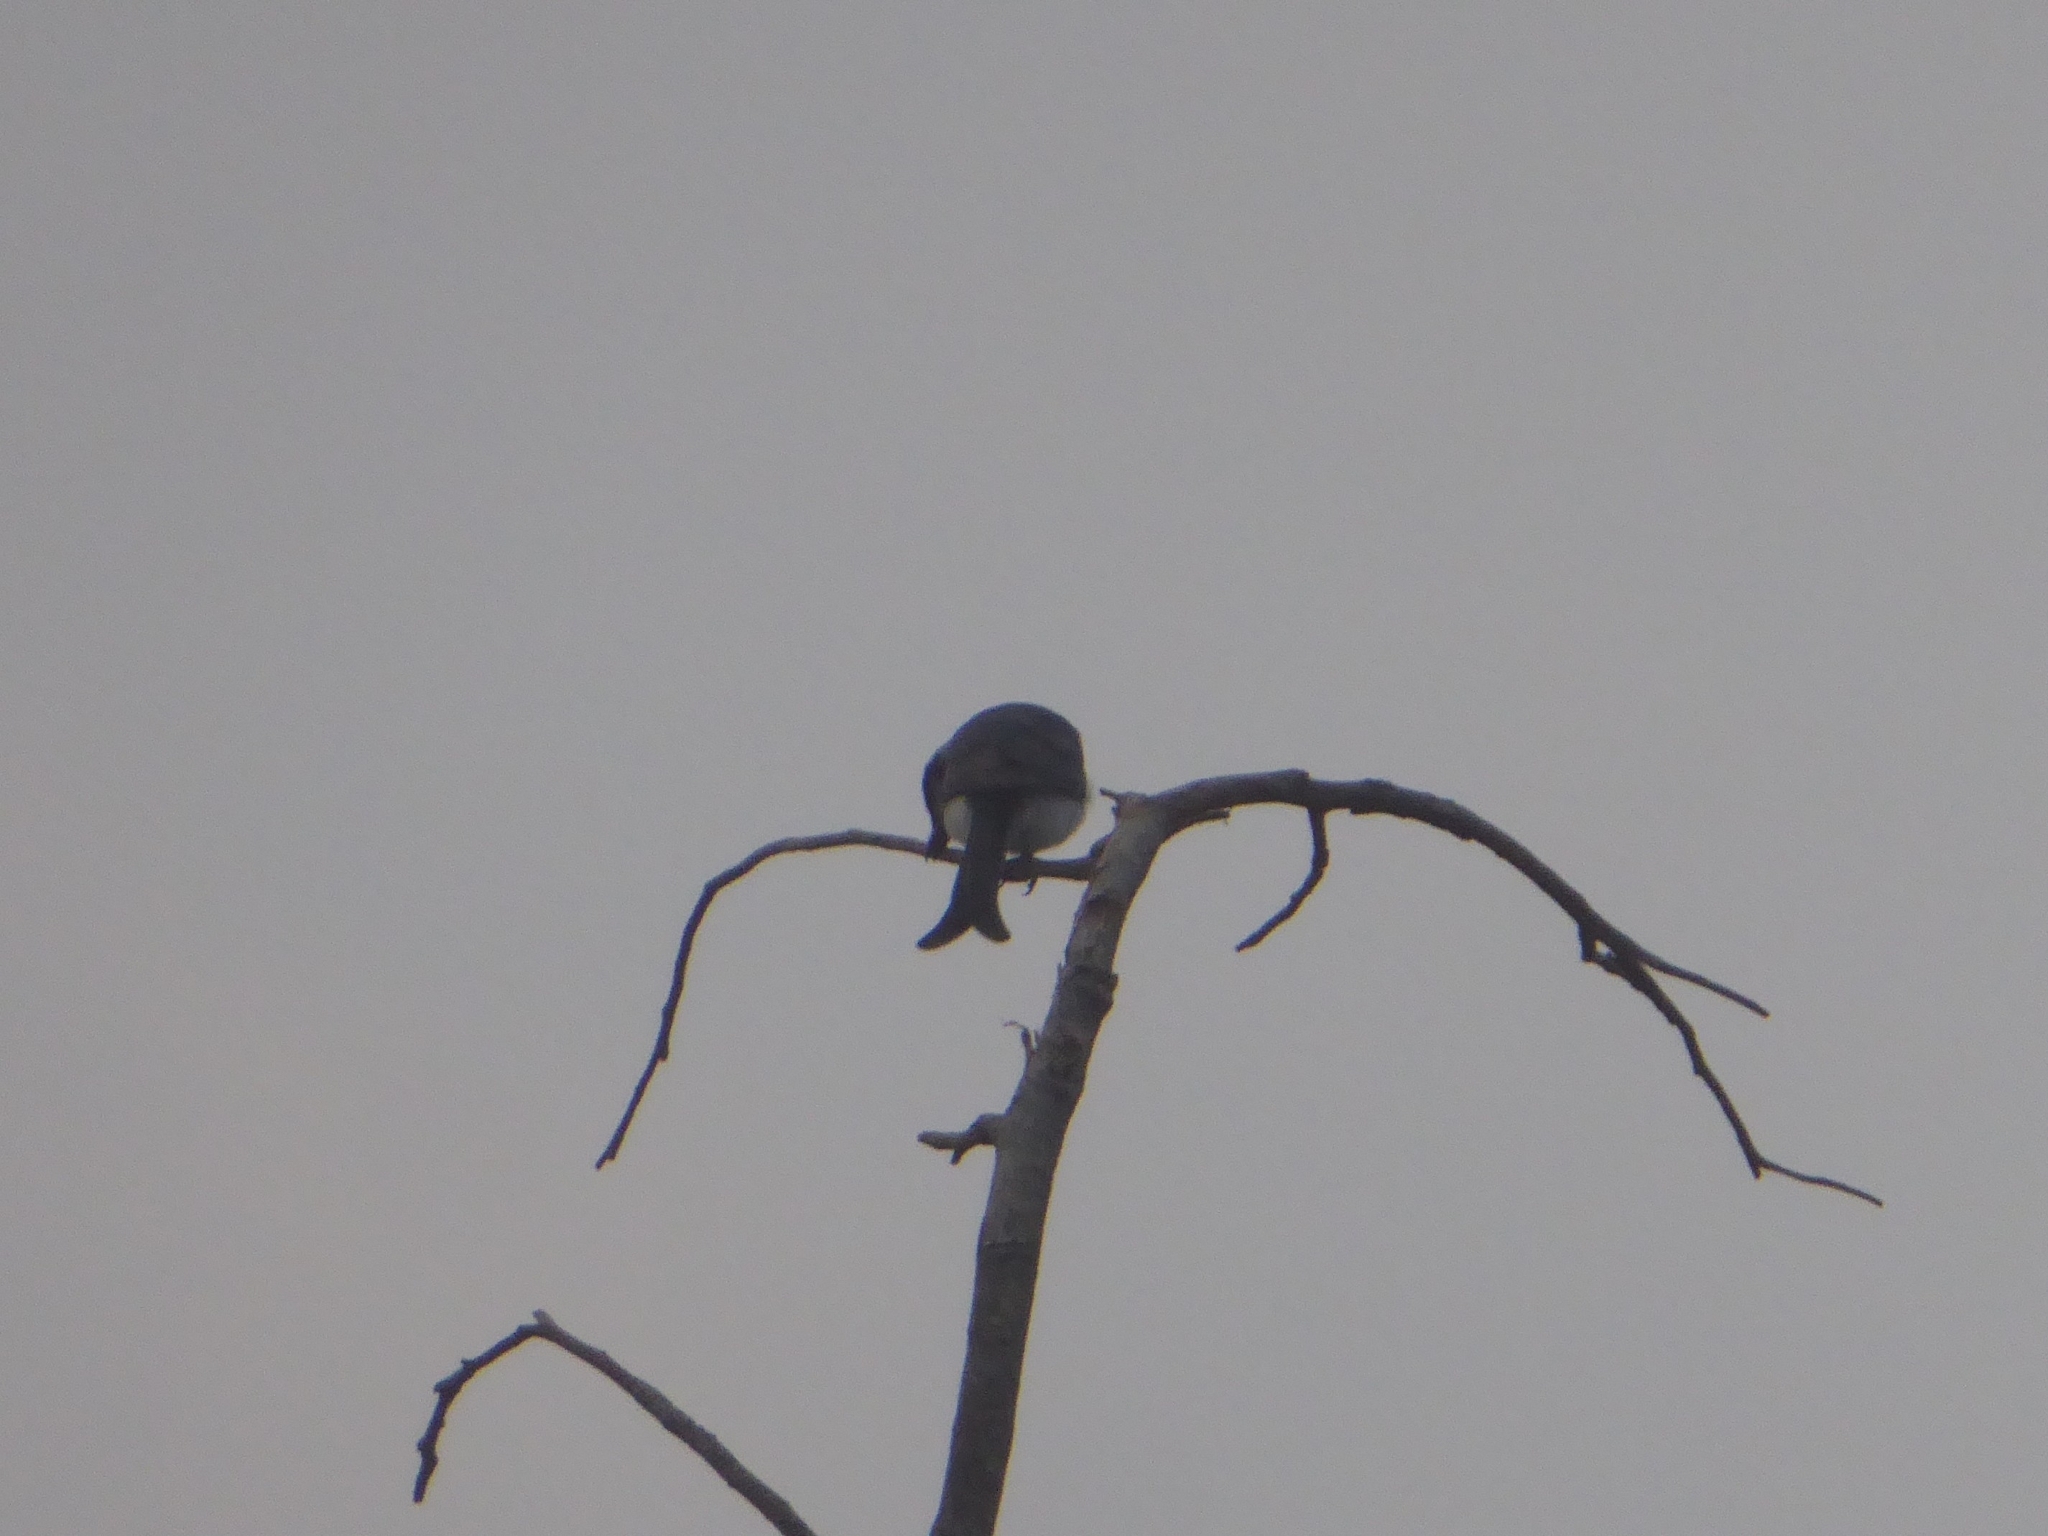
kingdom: Animalia
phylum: Chordata
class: Aves
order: Passeriformes
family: Dicruridae
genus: Dicrurus
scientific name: Dicrurus caerulescens
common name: White-bellied drongo
